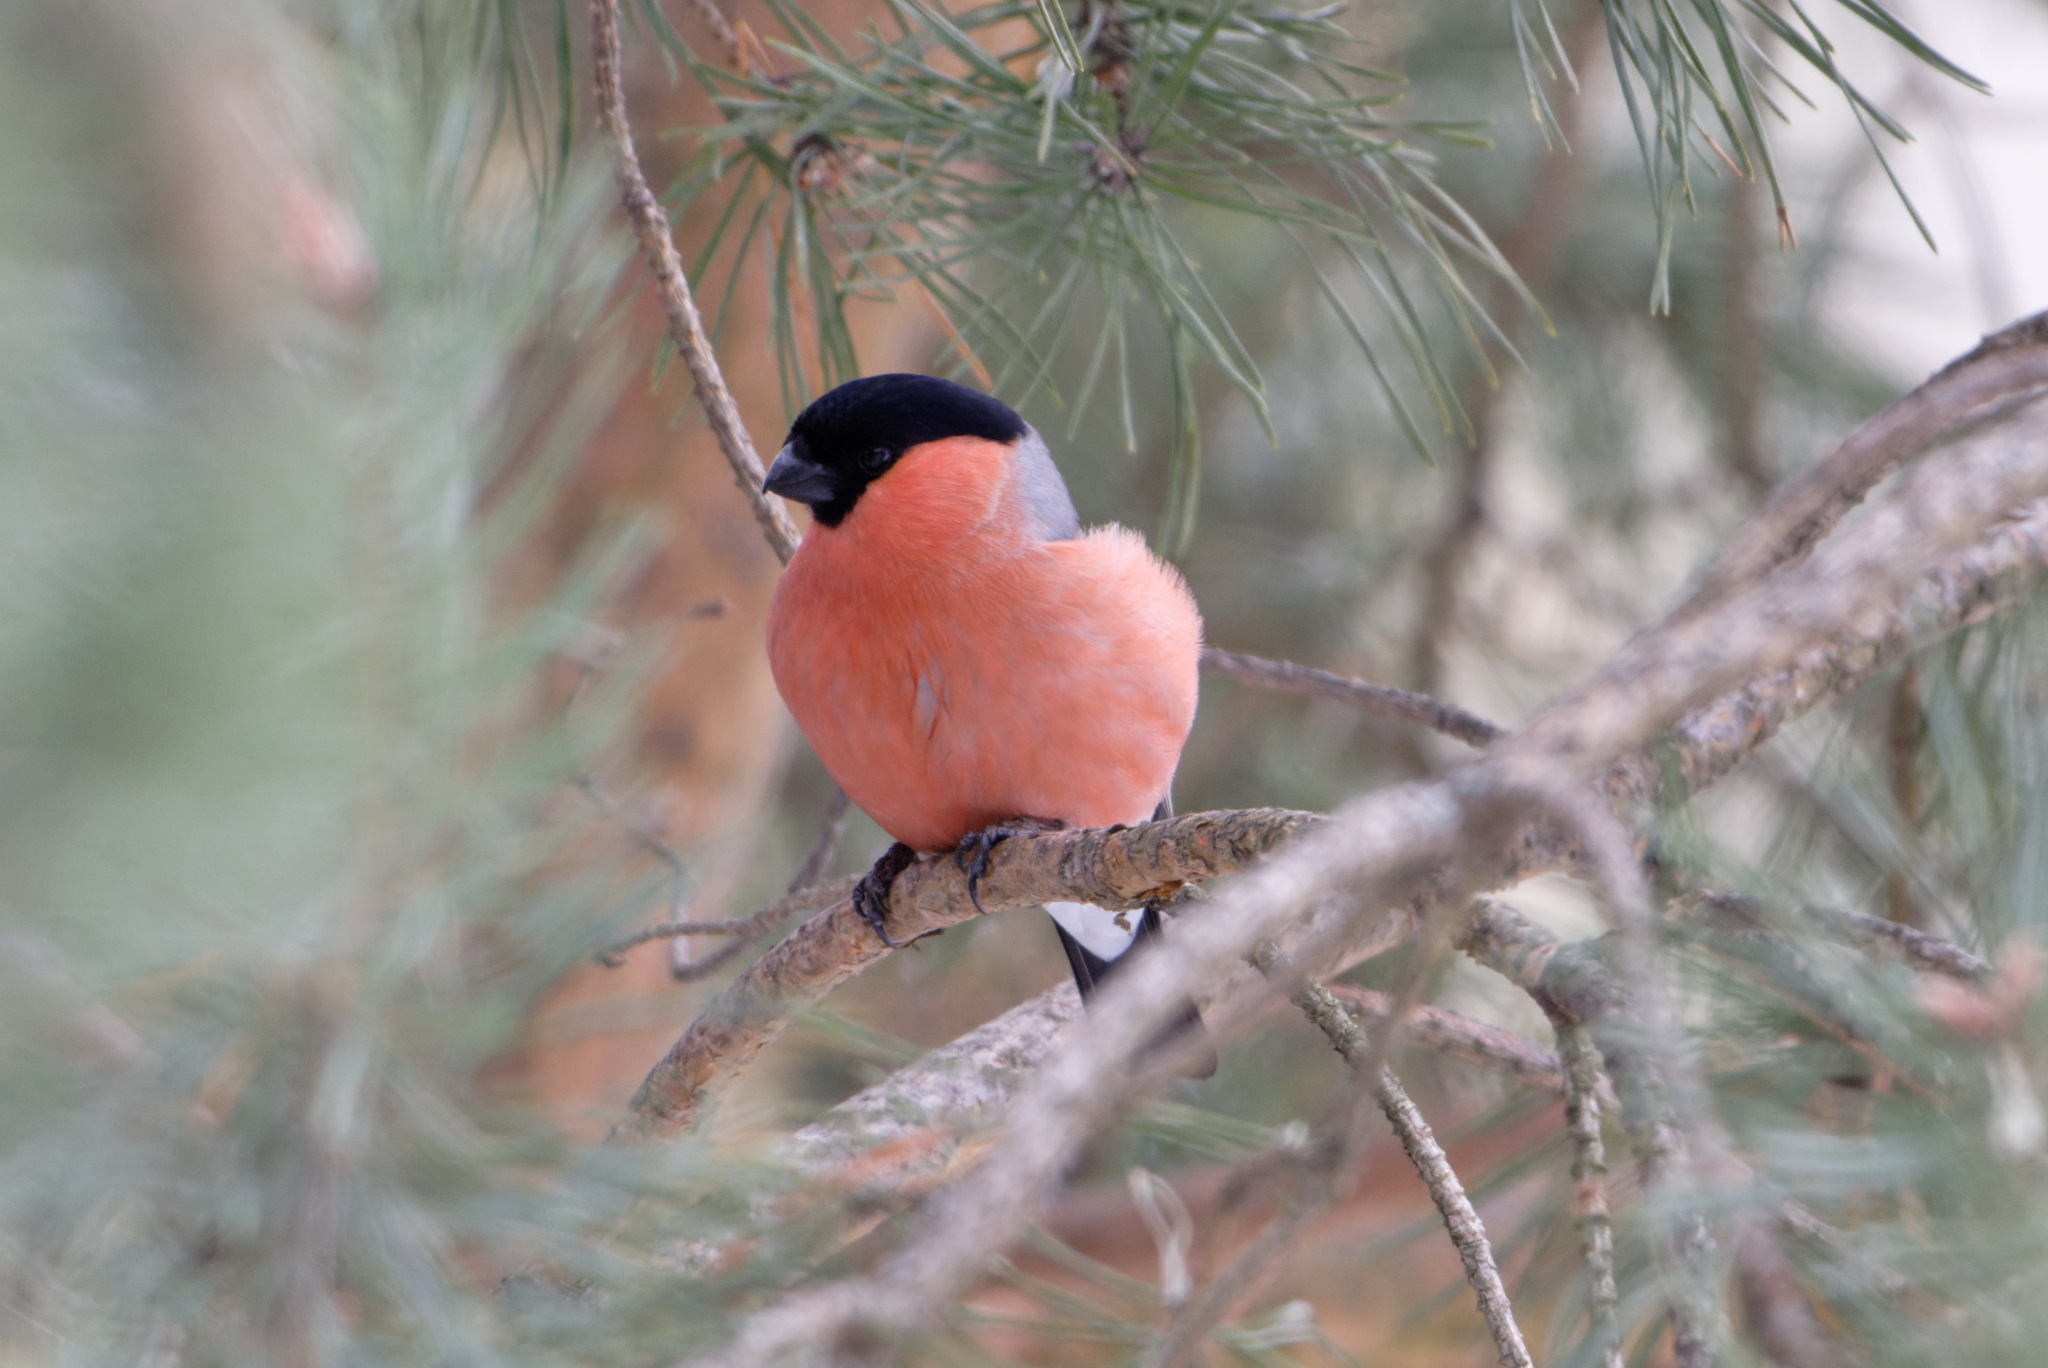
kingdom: Animalia
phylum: Chordata
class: Aves
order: Passeriformes
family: Fringillidae
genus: Pyrrhula
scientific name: Pyrrhula pyrrhula
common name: Eurasian bullfinch
